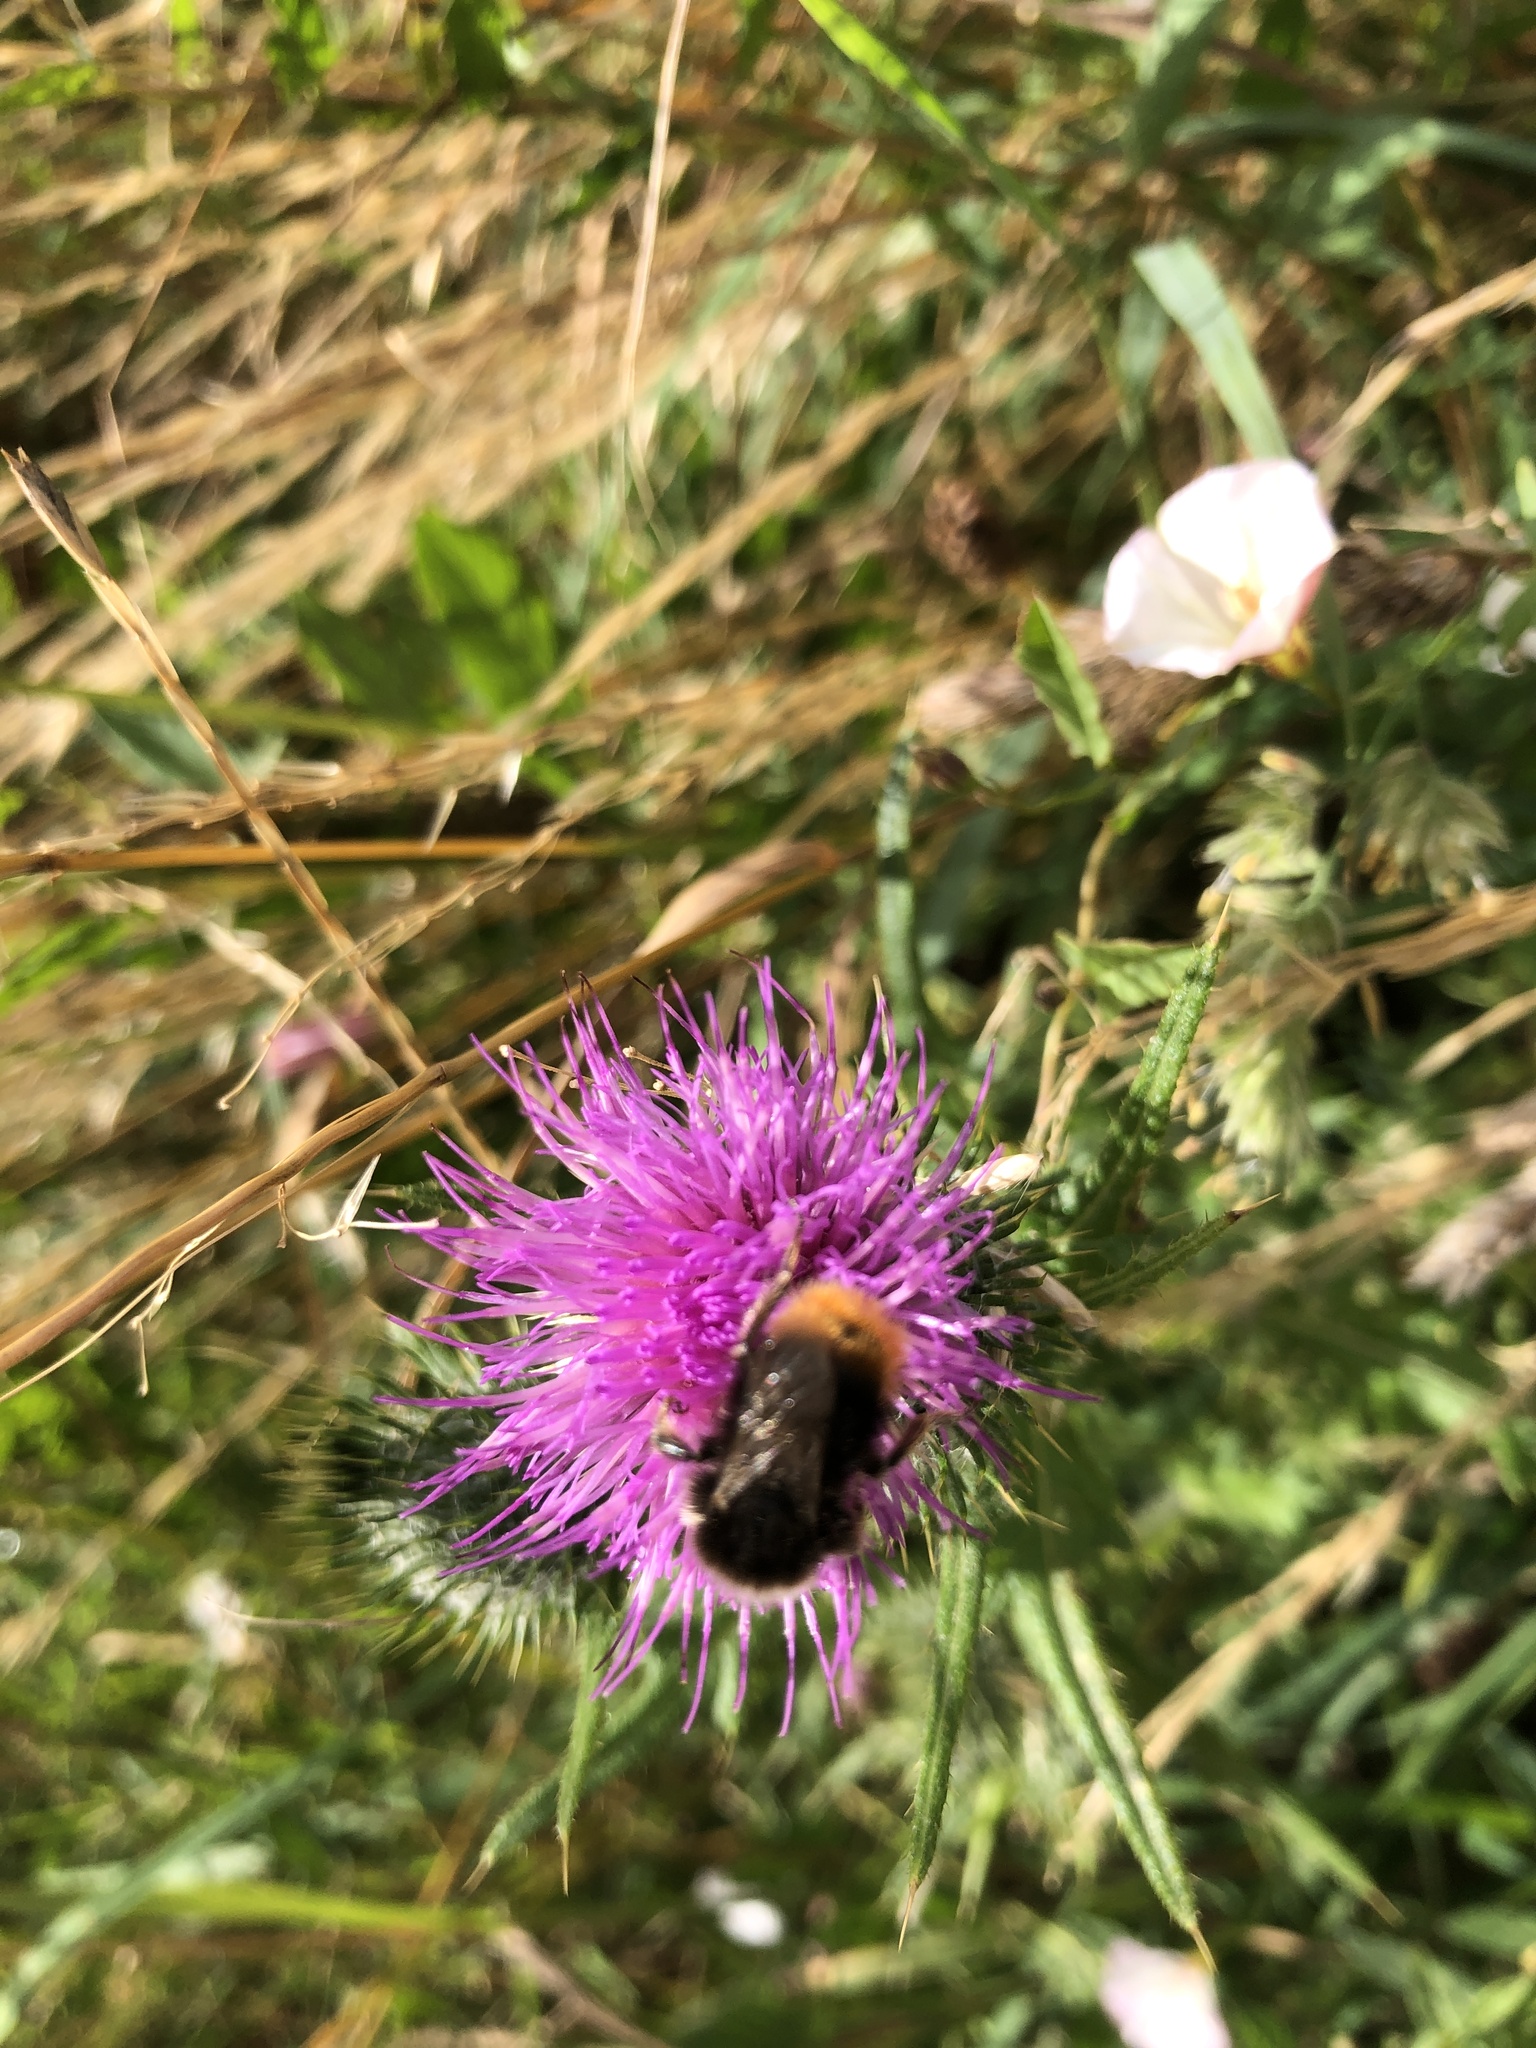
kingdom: Animalia
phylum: Arthropoda
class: Insecta
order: Hymenoptera
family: Apidae
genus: Bombus
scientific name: Bombus lapidarius
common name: Large red-tailed humble-bee
